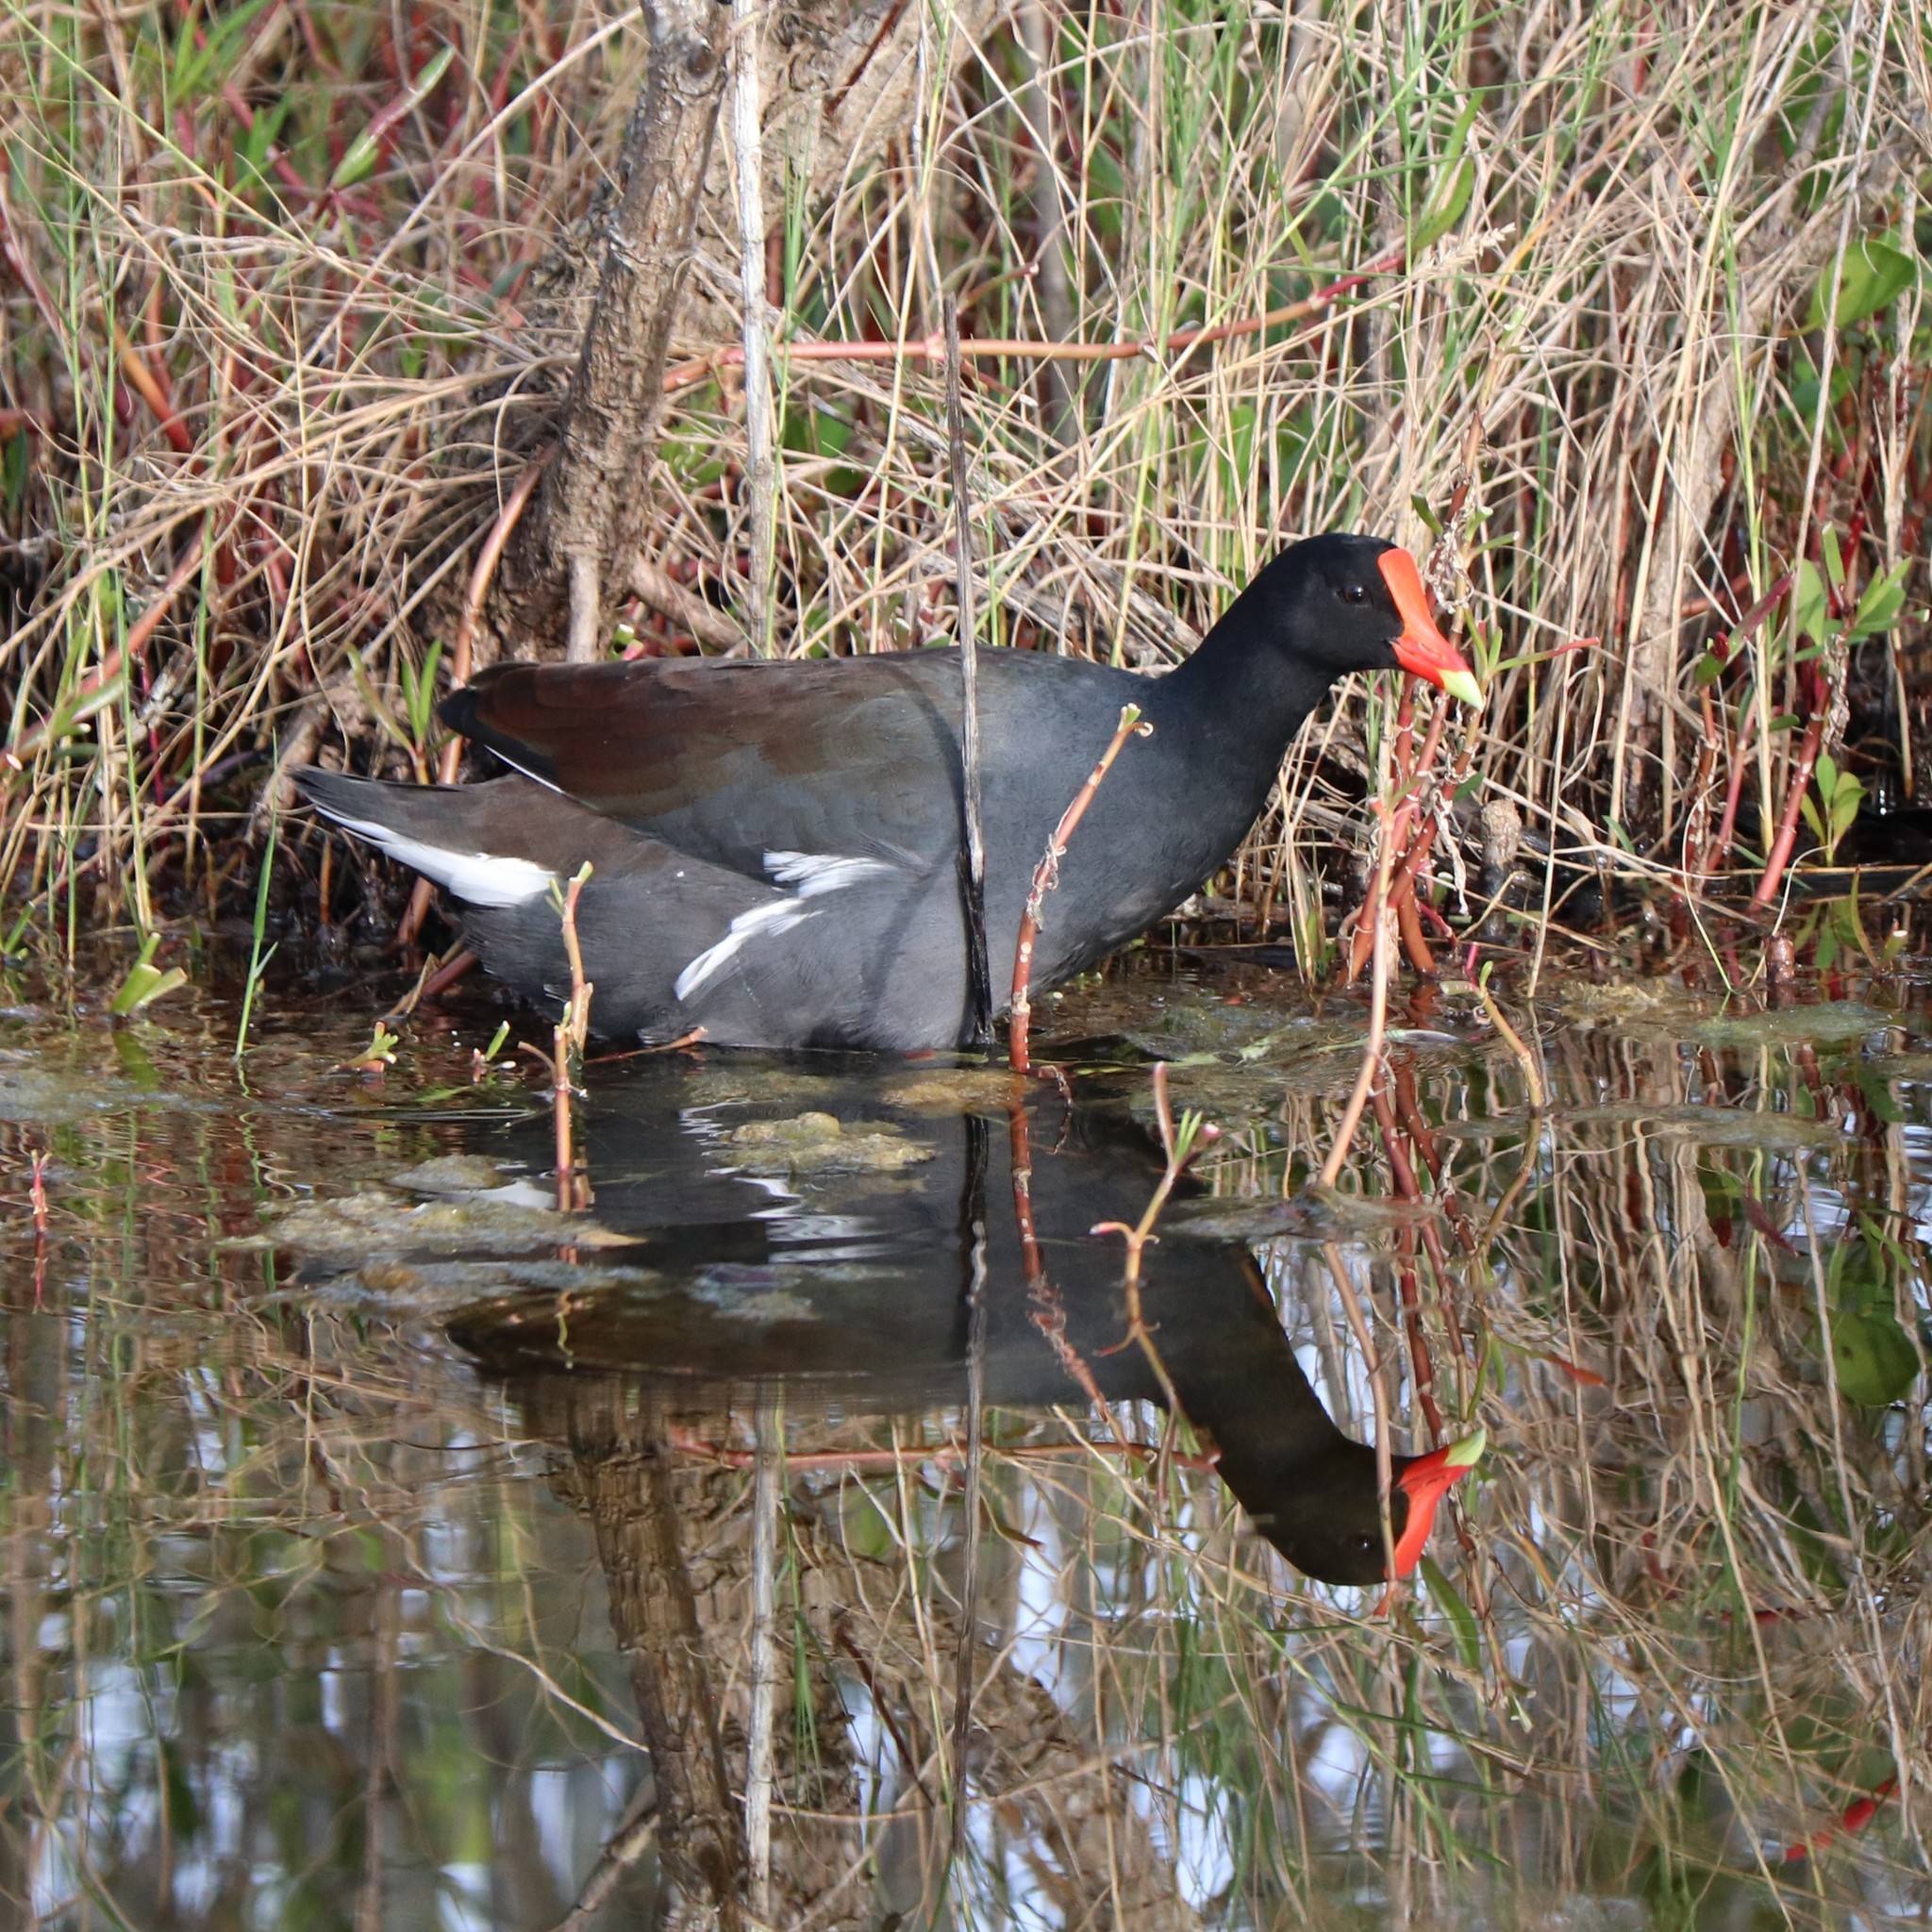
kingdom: Animalia
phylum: Chordata
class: Aves
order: Gruiformes
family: Rallidae
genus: Gallinula
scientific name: Gallinula chloropus
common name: Common moorhen
